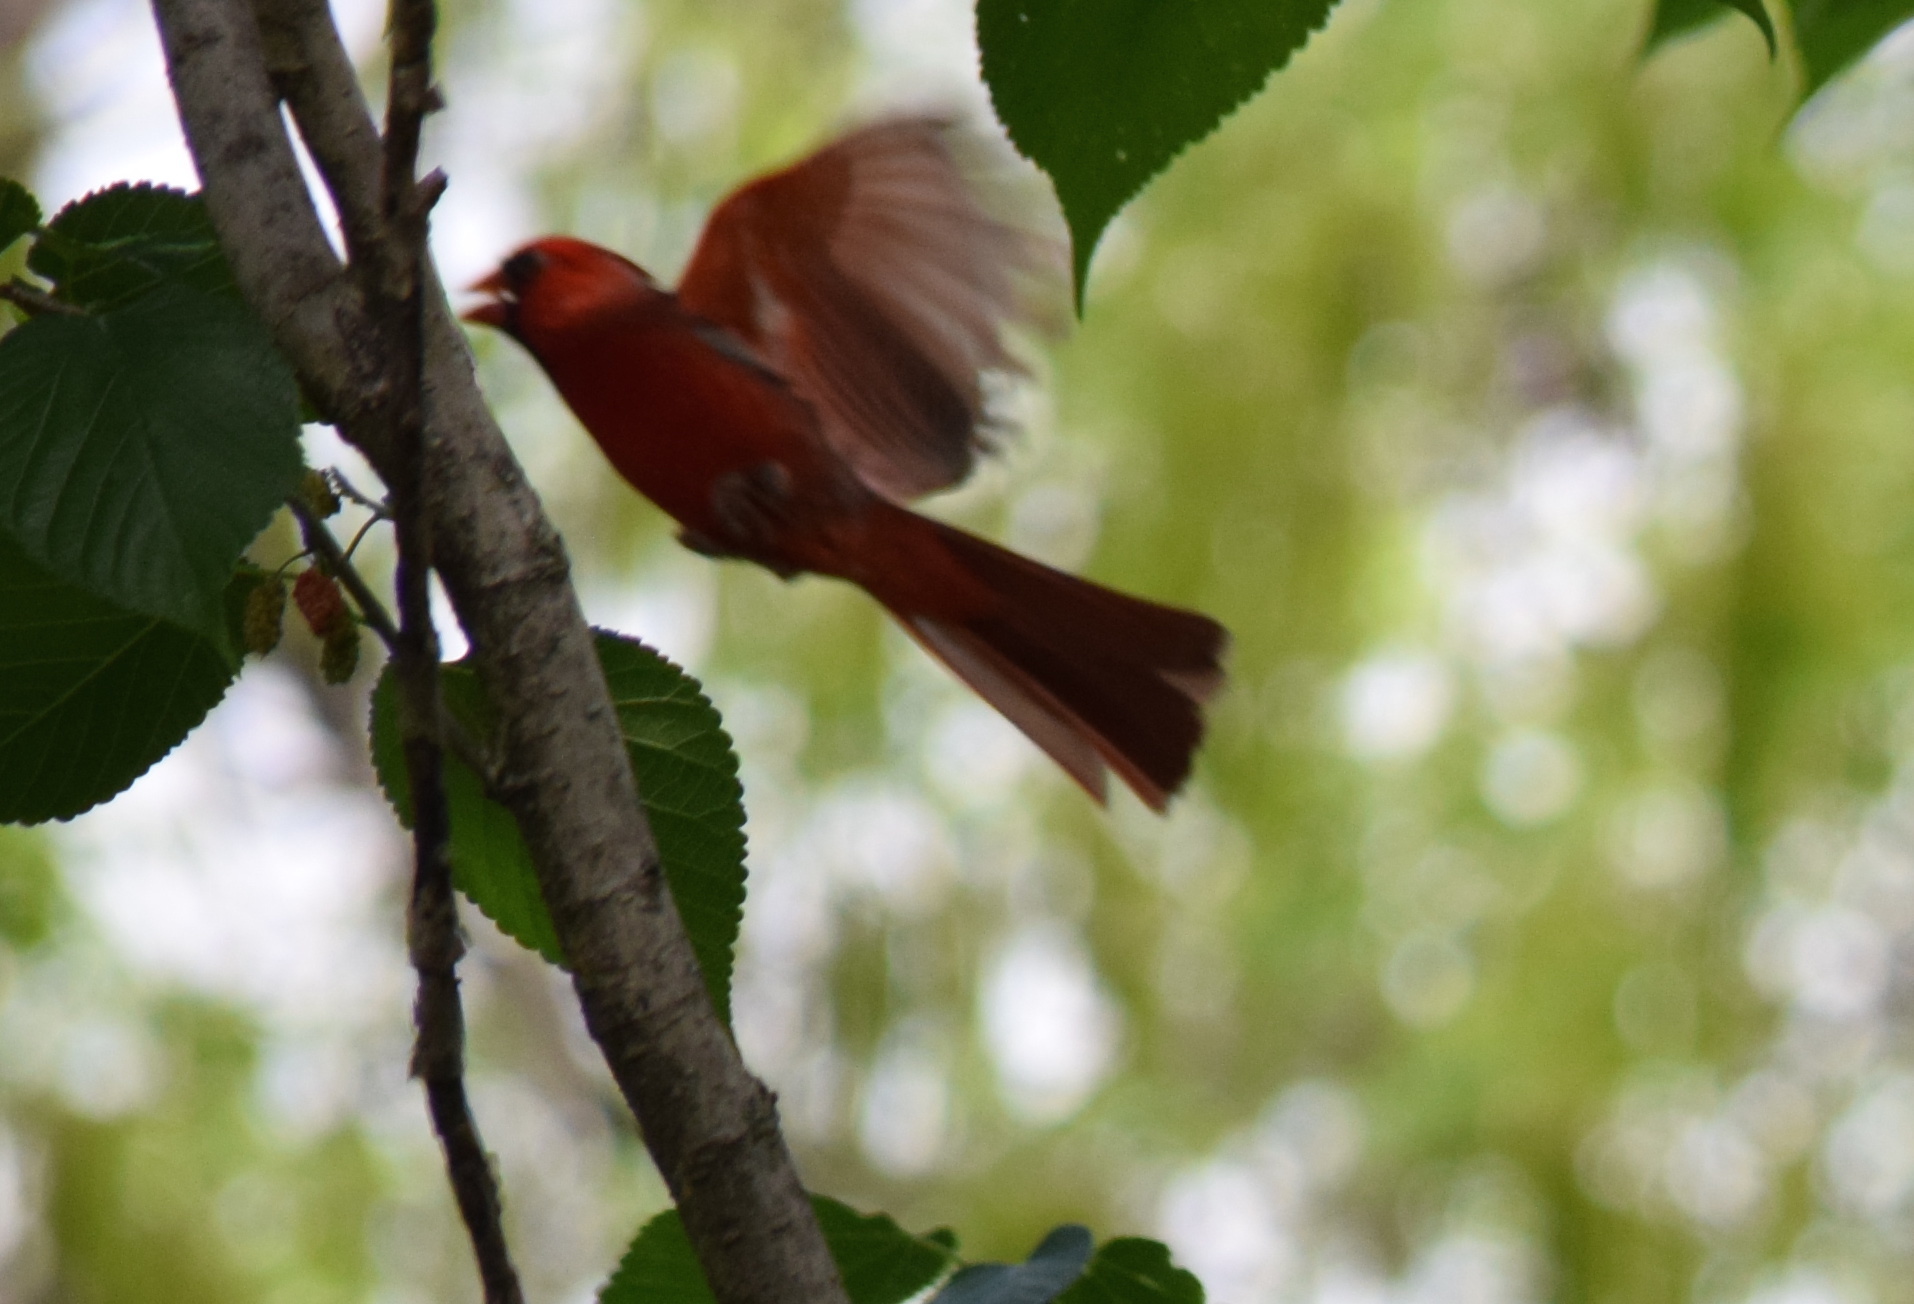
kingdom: Animalia
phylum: Chordata
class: Aves
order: Passeriformes
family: Cardinalidae
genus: Cardinalis
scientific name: Cardinalis cardinalis
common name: Northern cardinal
